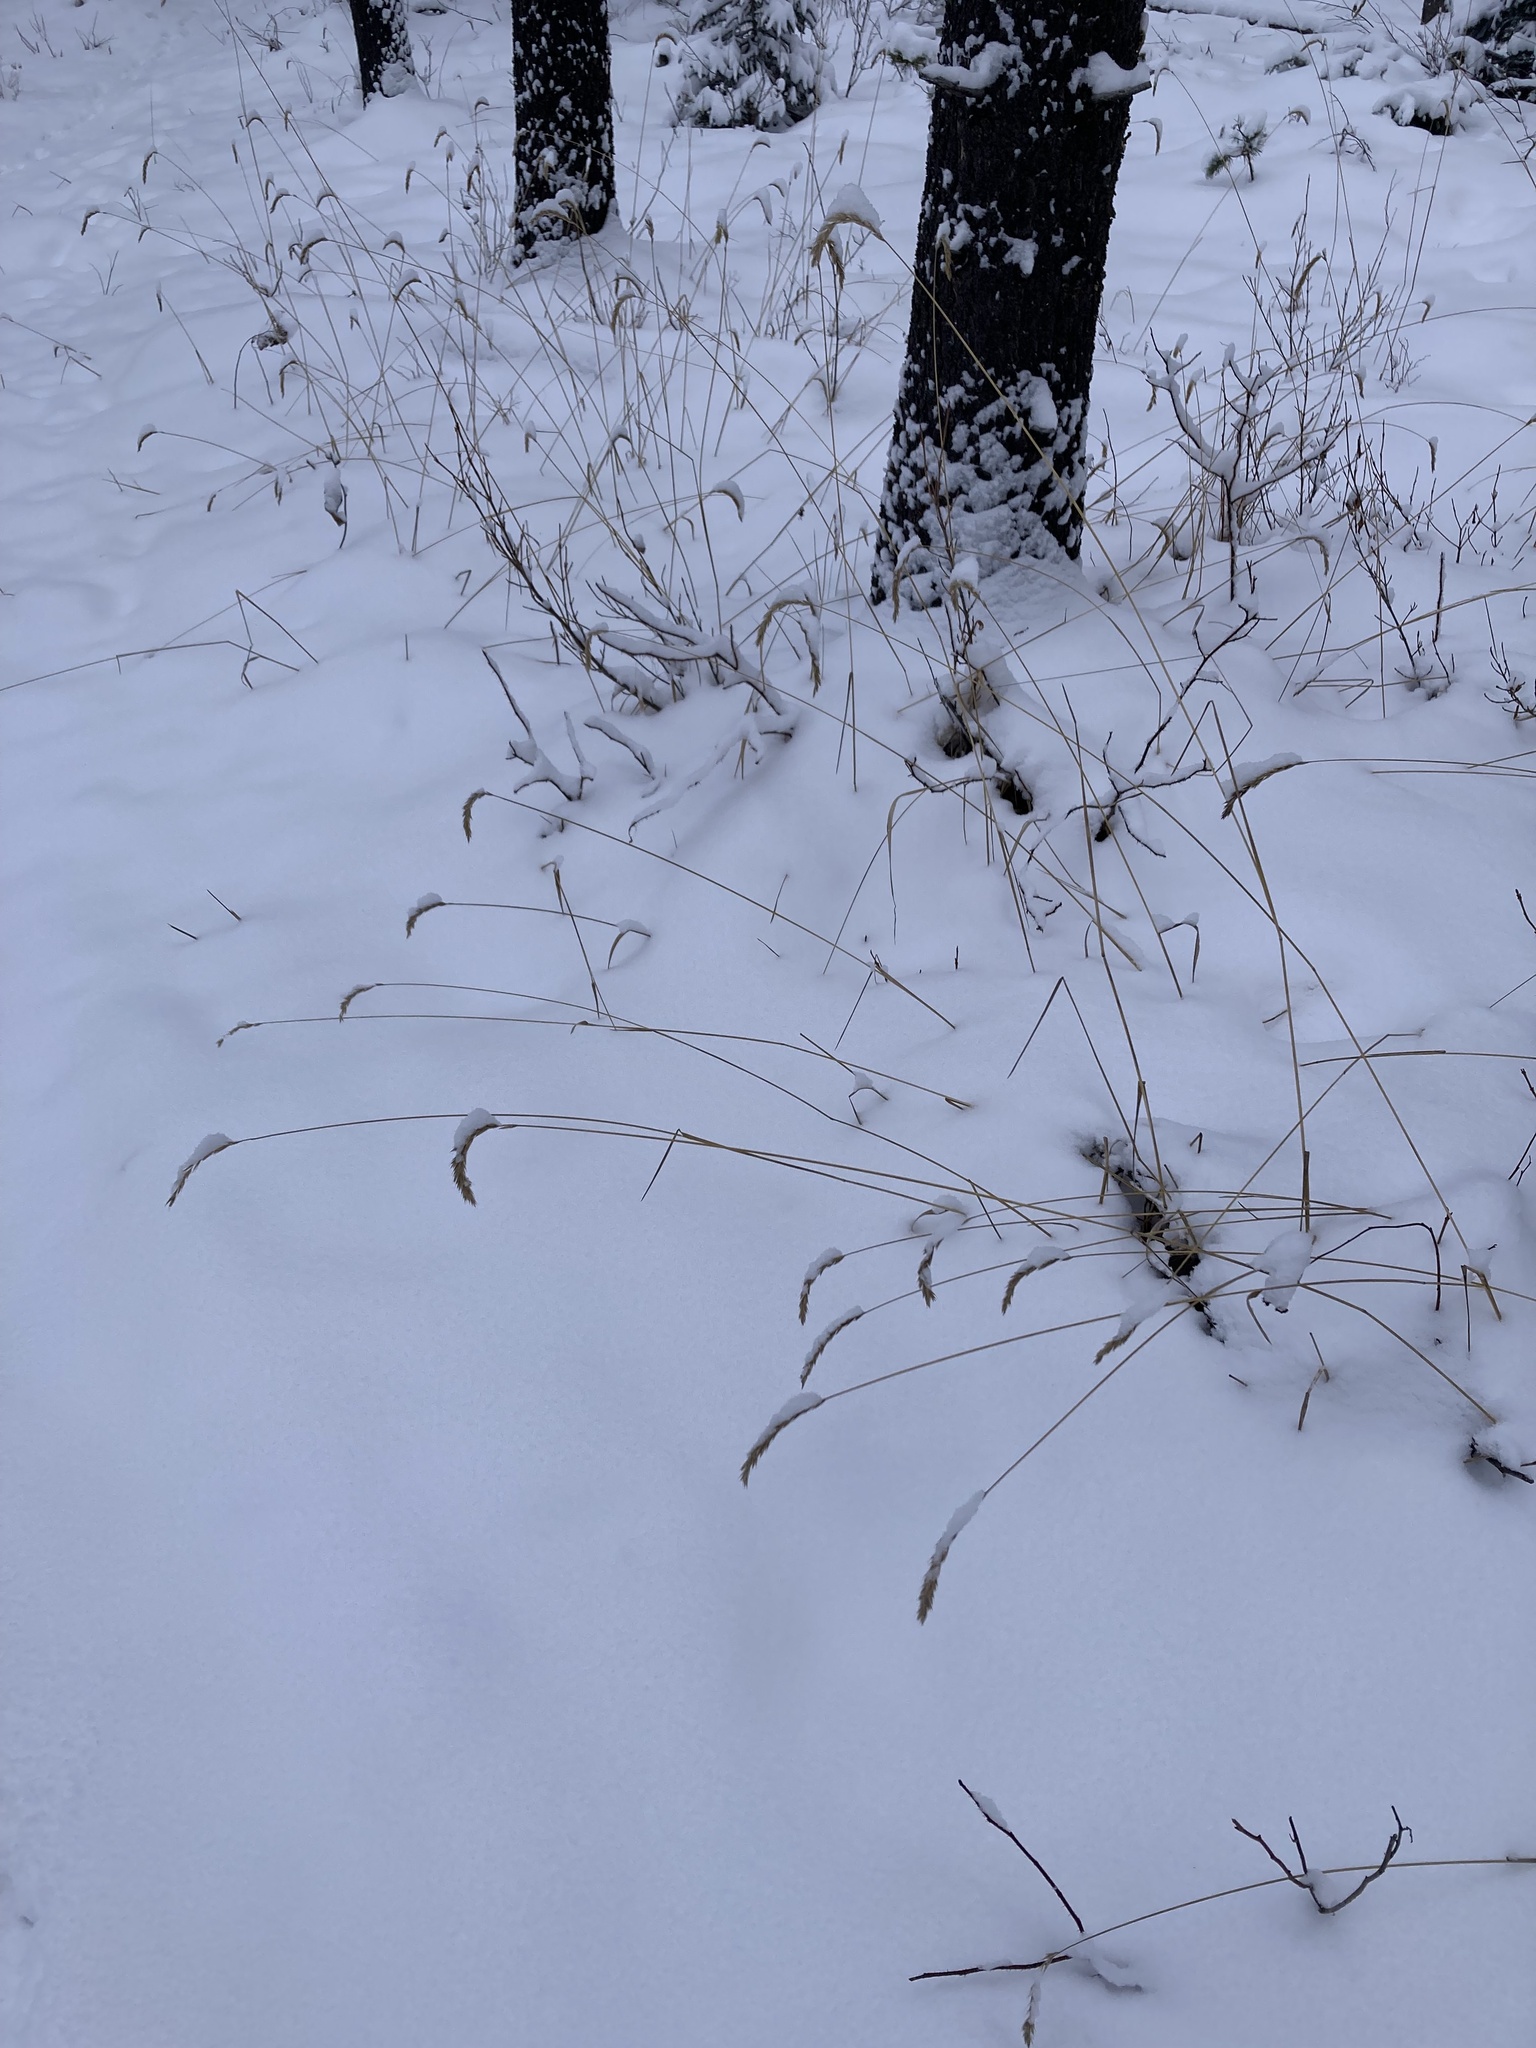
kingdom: Plantae
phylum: Tracheophyta
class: Liliopsida
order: Poales
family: Poaceae
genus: Leymus
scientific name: Leymus innovatus
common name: Boreal wild rye
